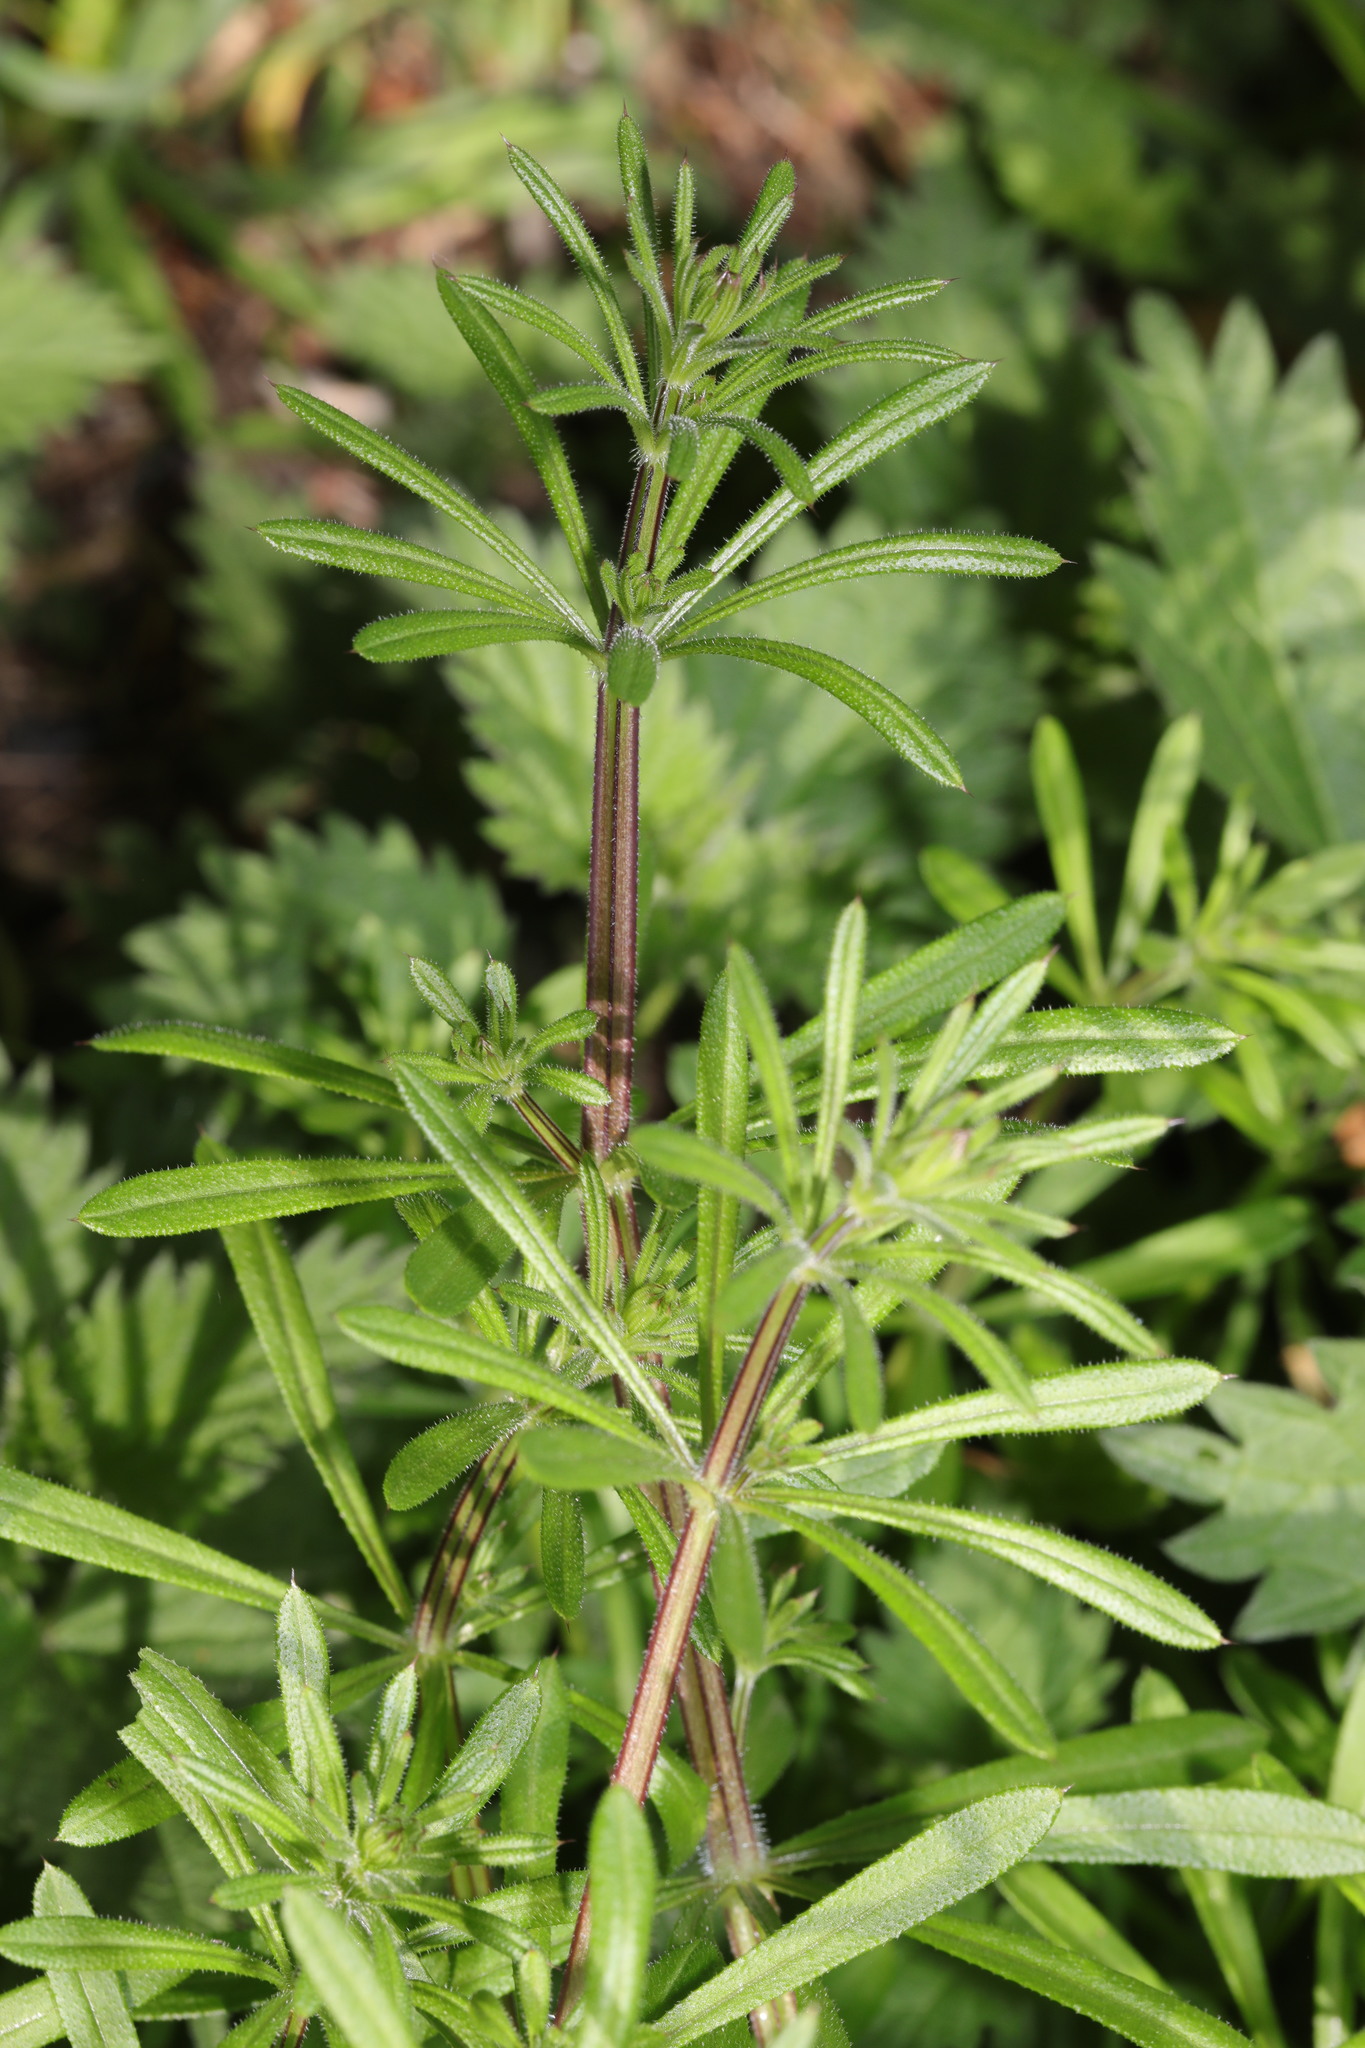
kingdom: Plantae
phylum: Tracheophyta
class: Magnoliopsida
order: Gentianales
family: Rubiaceae
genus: Galium
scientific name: Galium aparine
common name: Cleavers
